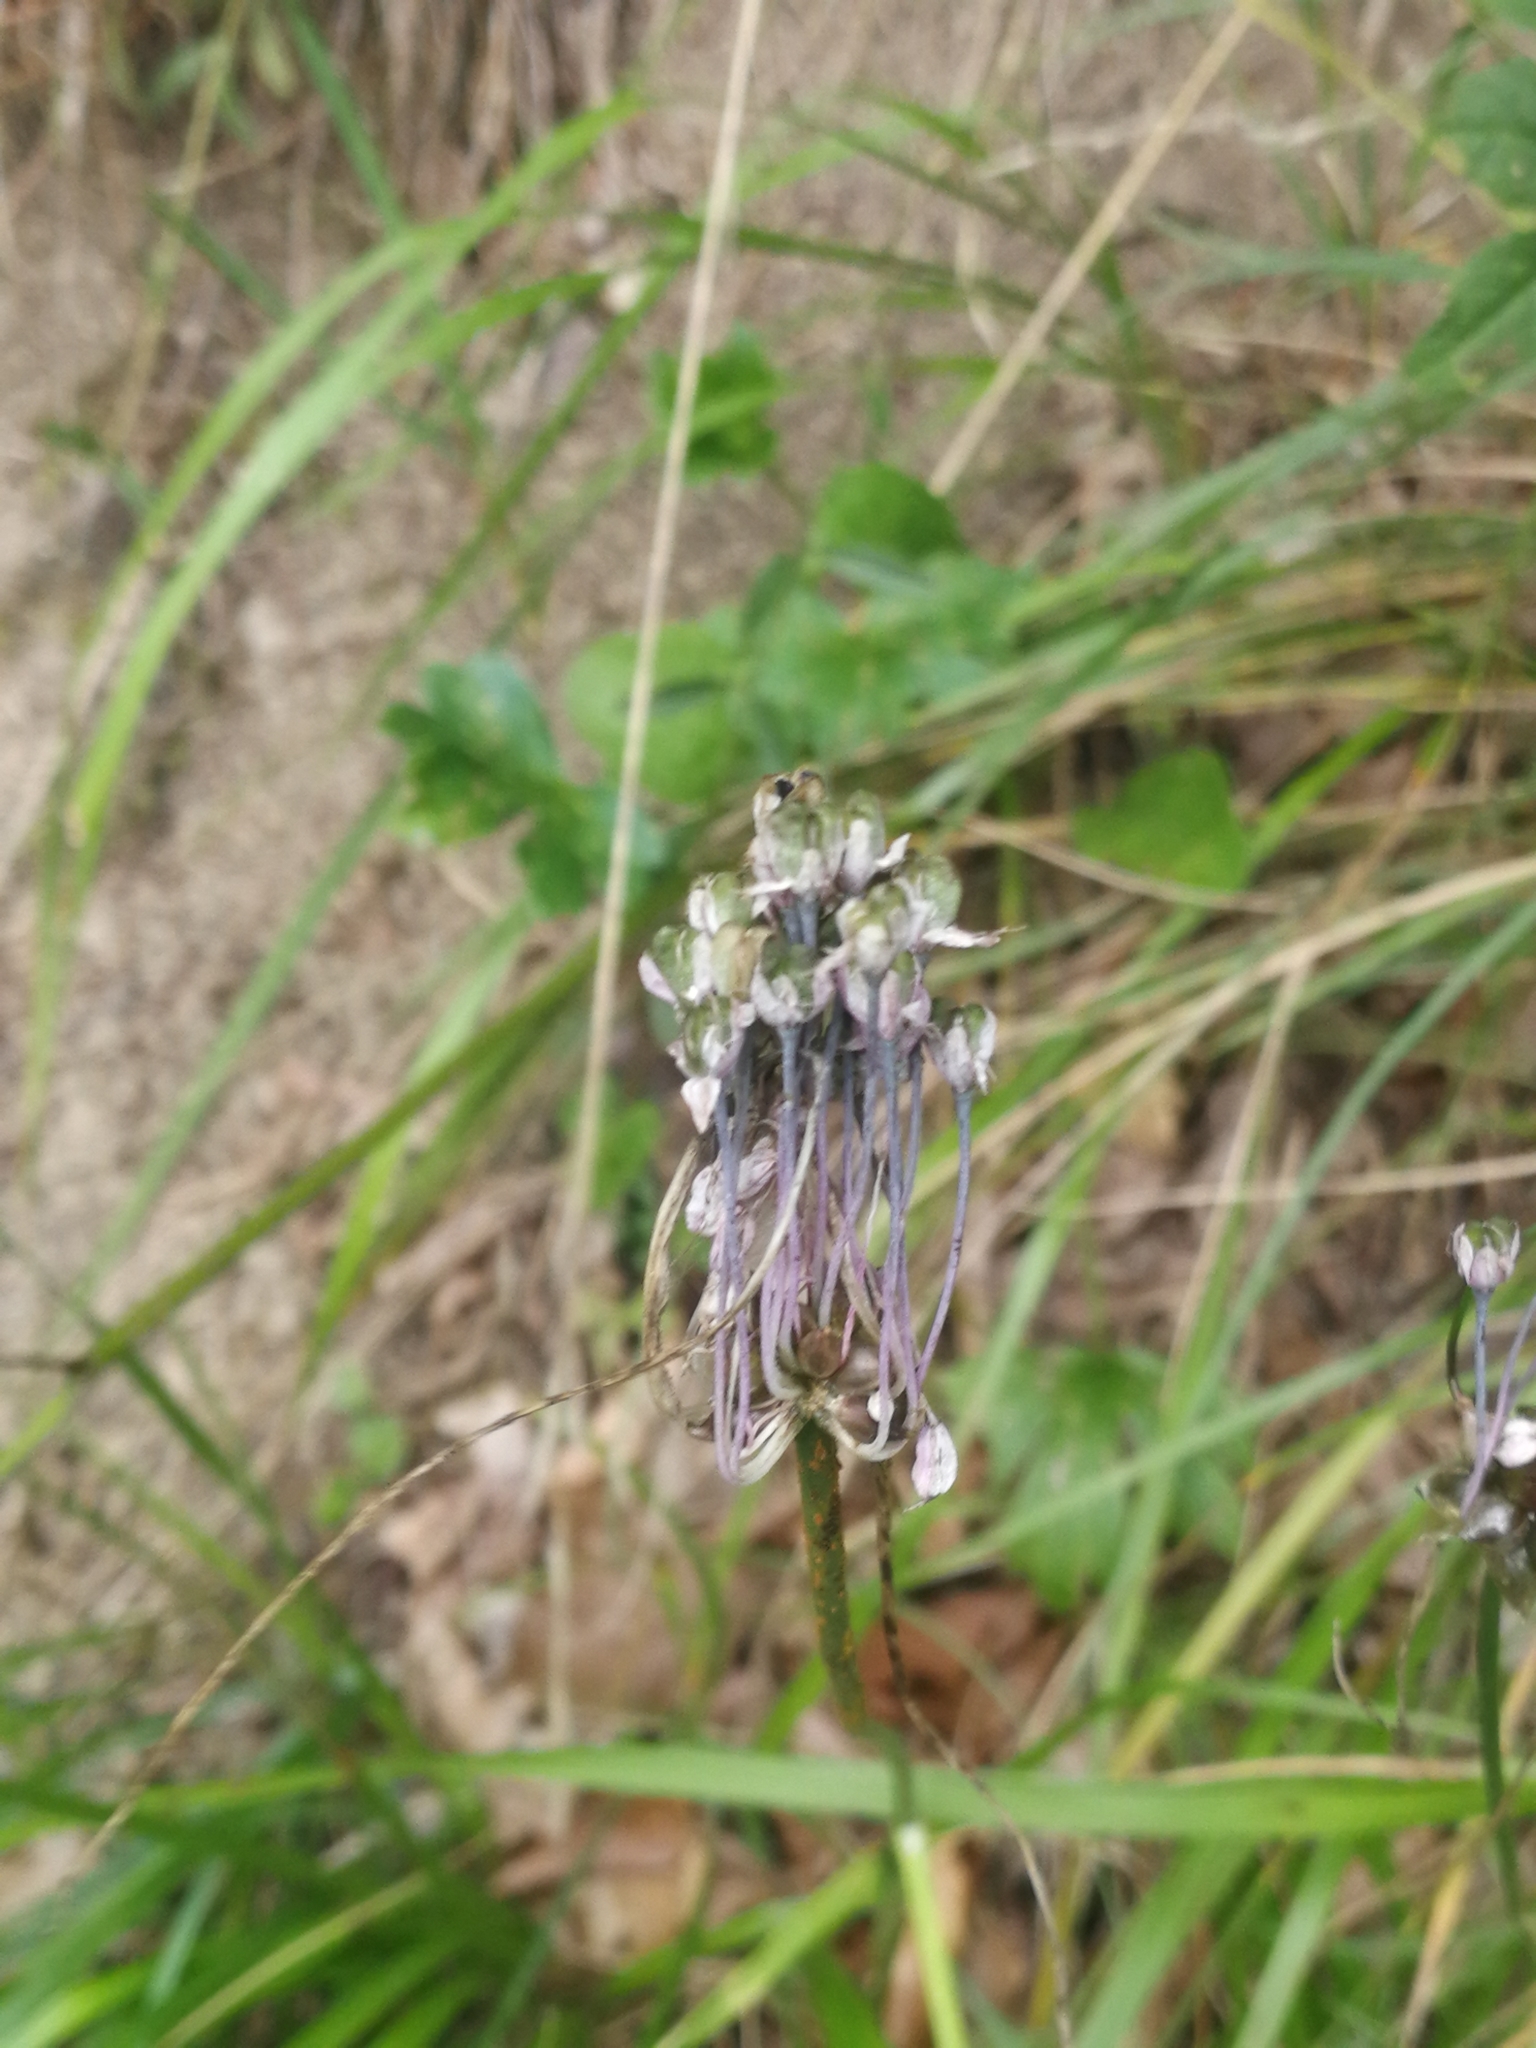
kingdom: Plantae
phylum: Tracheophyta
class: Liliopsida
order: Asparagales
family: Amaryllidaceae
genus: Allium
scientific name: Allium carinatum
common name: Keeled garlic
